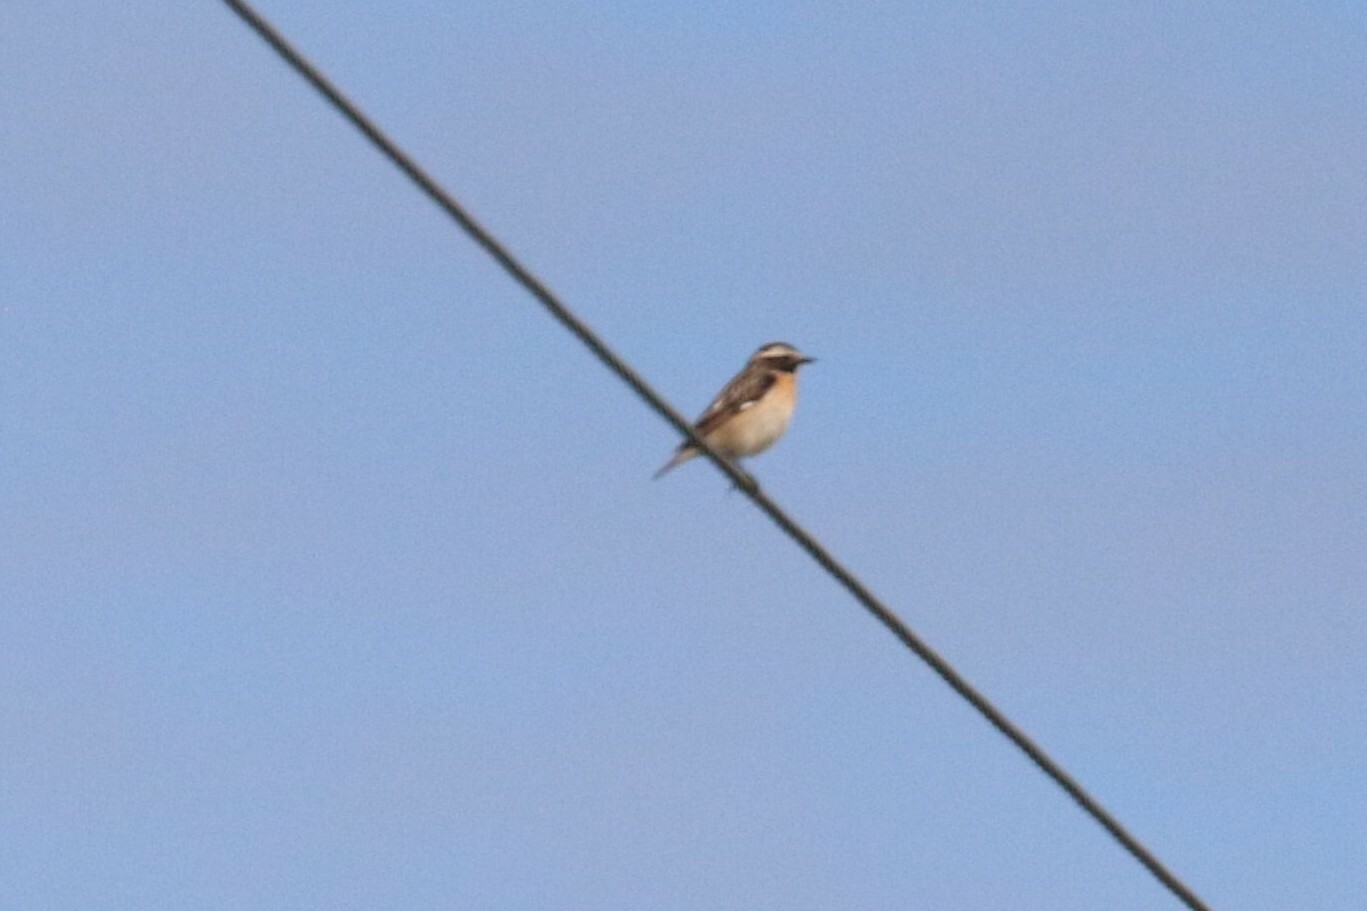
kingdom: Animalia
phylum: Chordata
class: Aves
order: Passeriformes
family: Muscicapidae
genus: Saxicola
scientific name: Saxicola rubetra
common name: Whinchat
